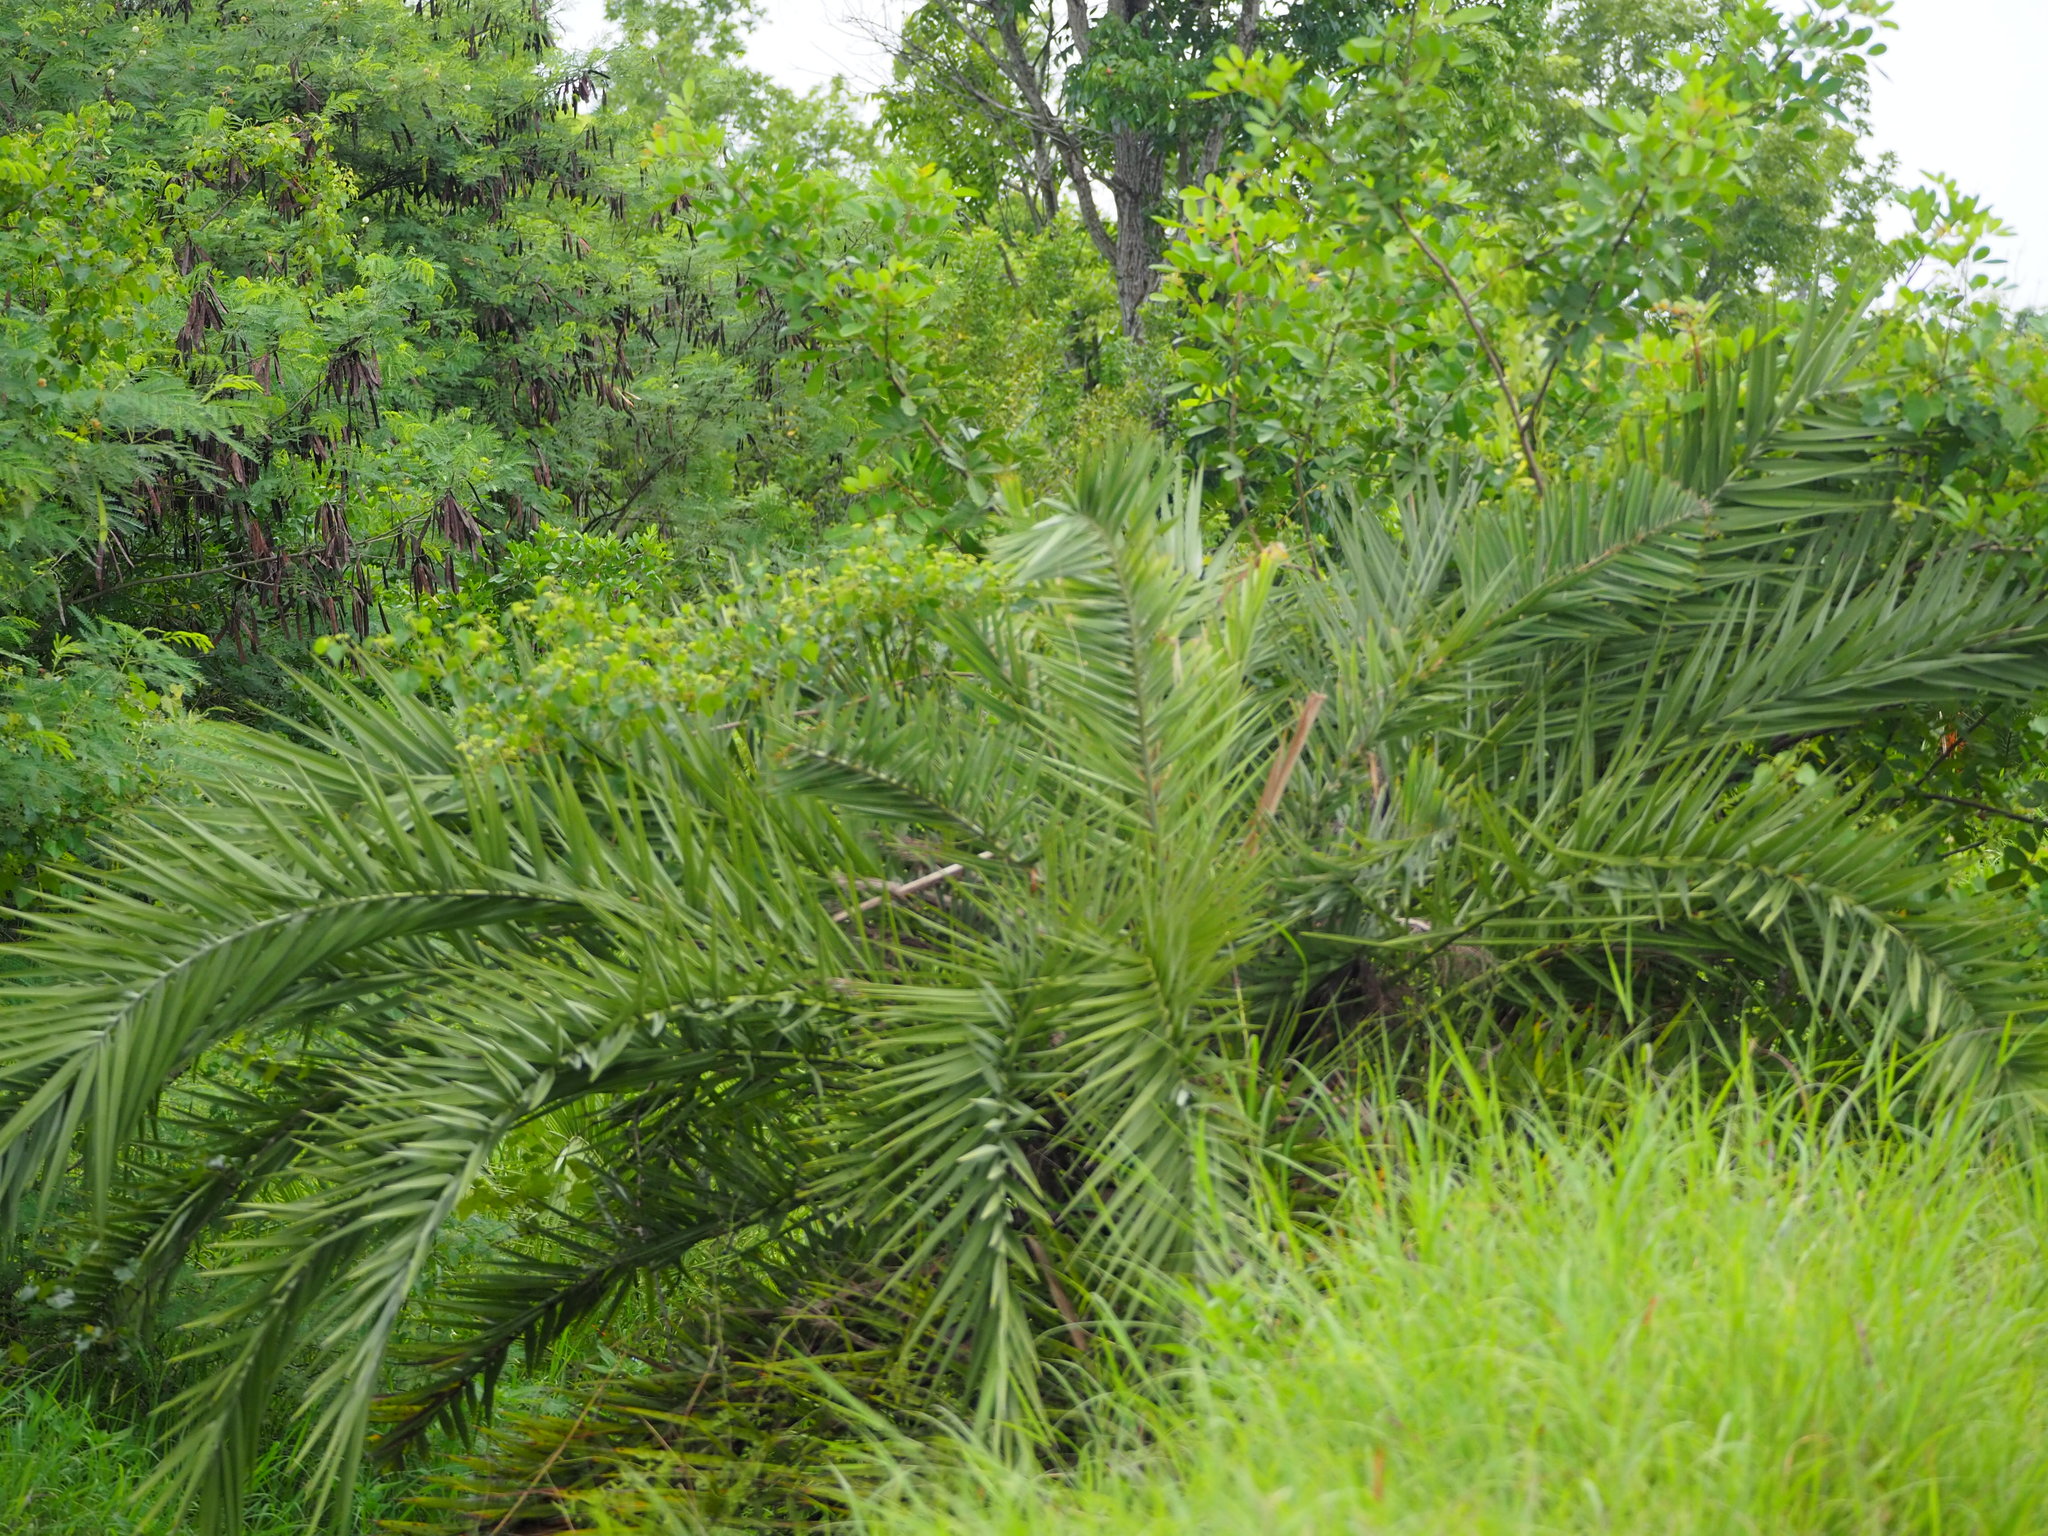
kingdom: Plantae
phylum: Tracheophyta
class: Liliopsida
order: Arecales
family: Arecaceae
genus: Phoenix
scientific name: Phoenix loureiroi
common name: Loureiro's palm
